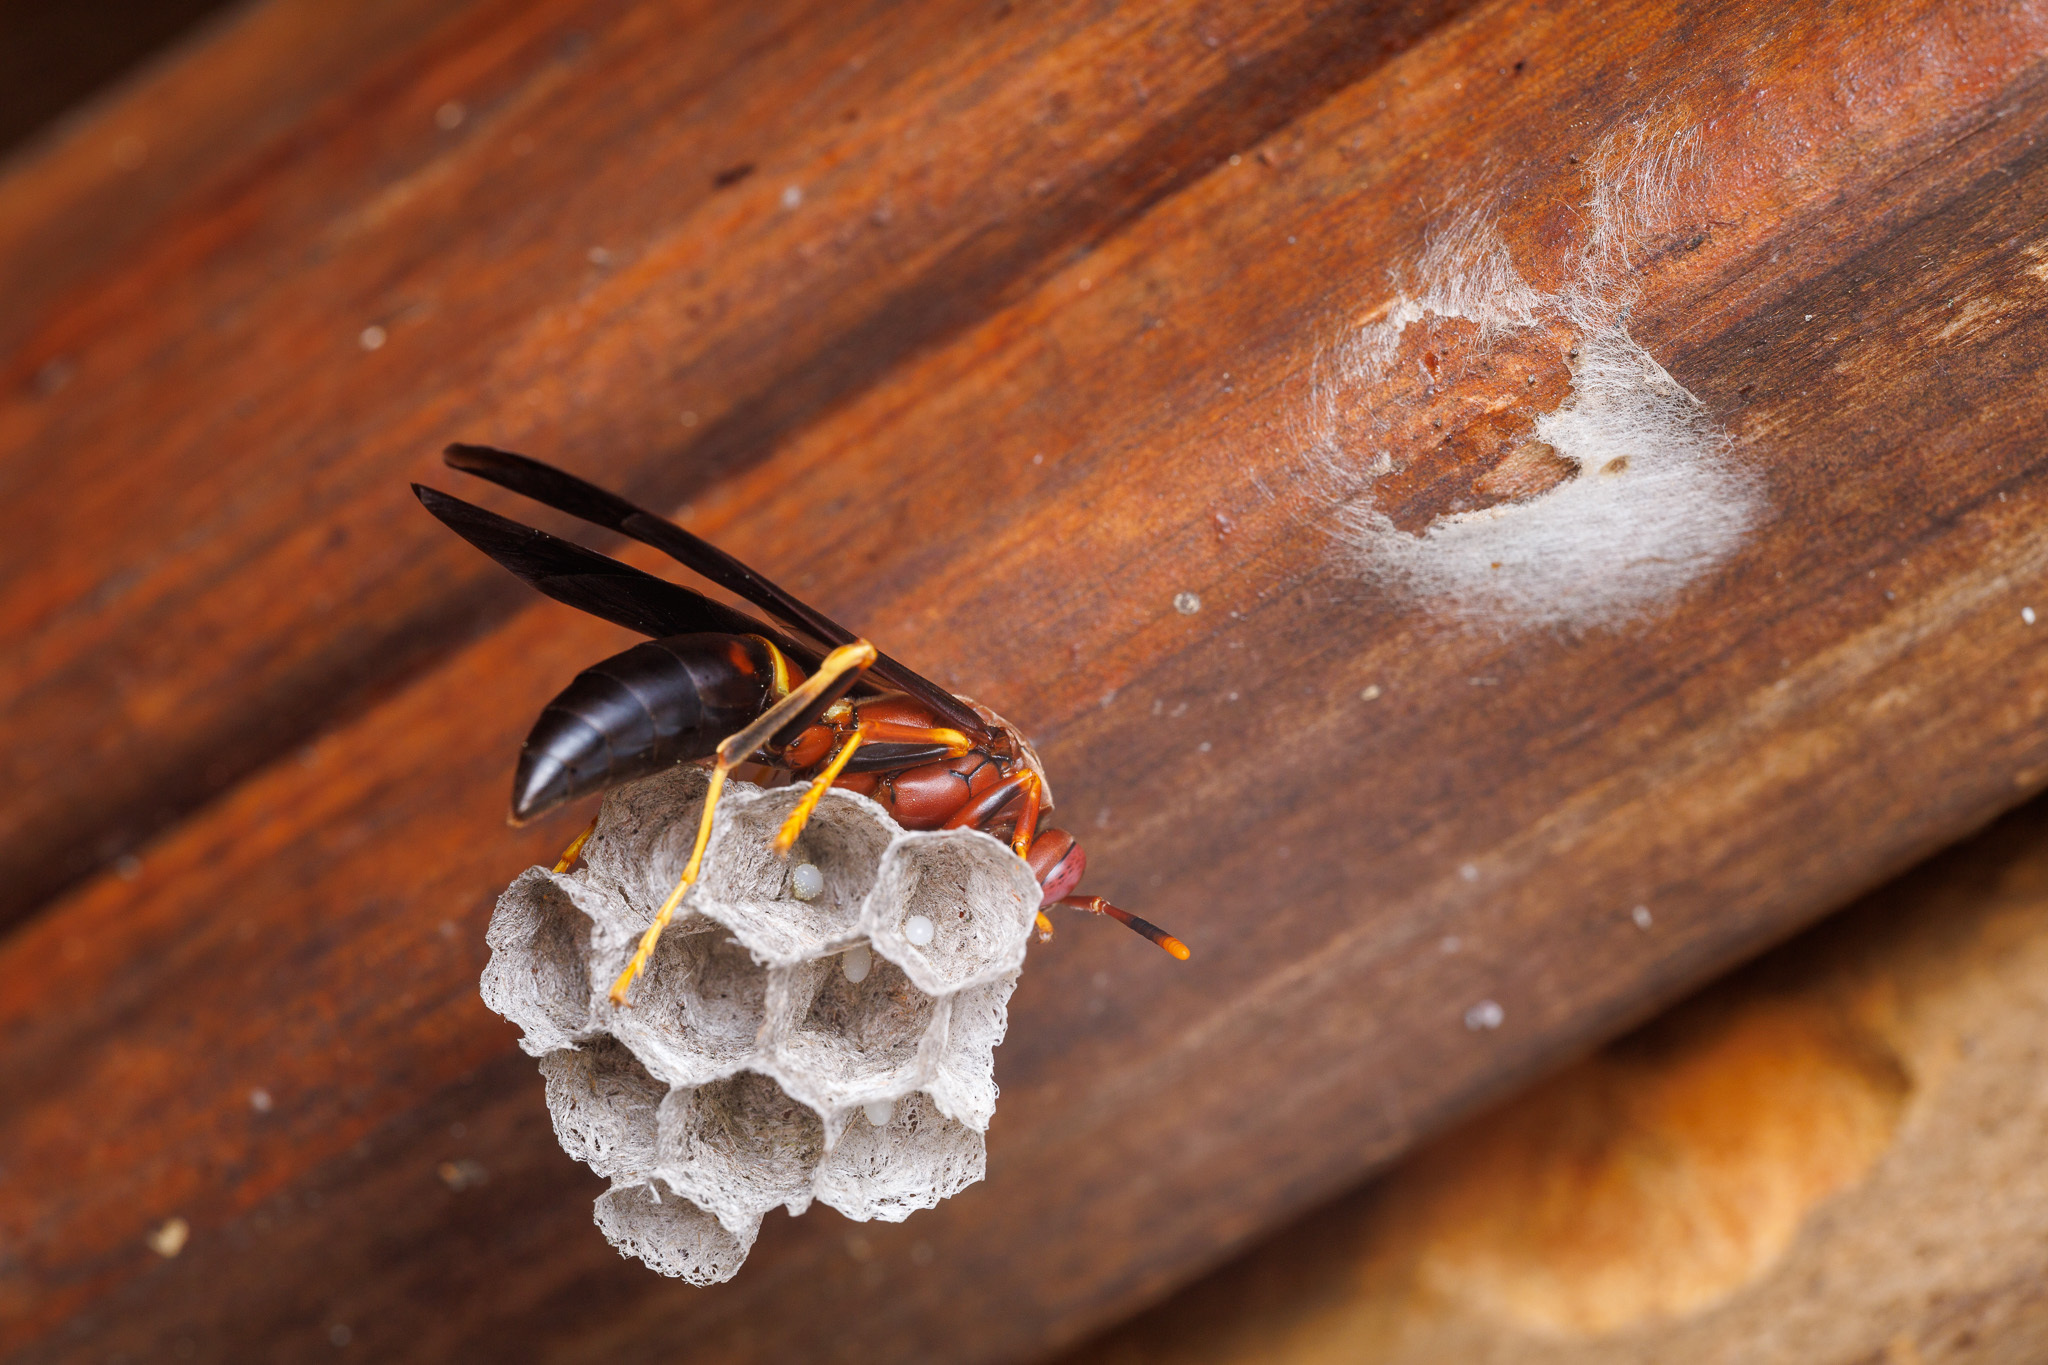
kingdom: Animalia
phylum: Arthropoda
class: Insecta
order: Hymenoptera
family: Eumenidae
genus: Polistes
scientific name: Polistes annularis
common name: Ringed paper wasp
